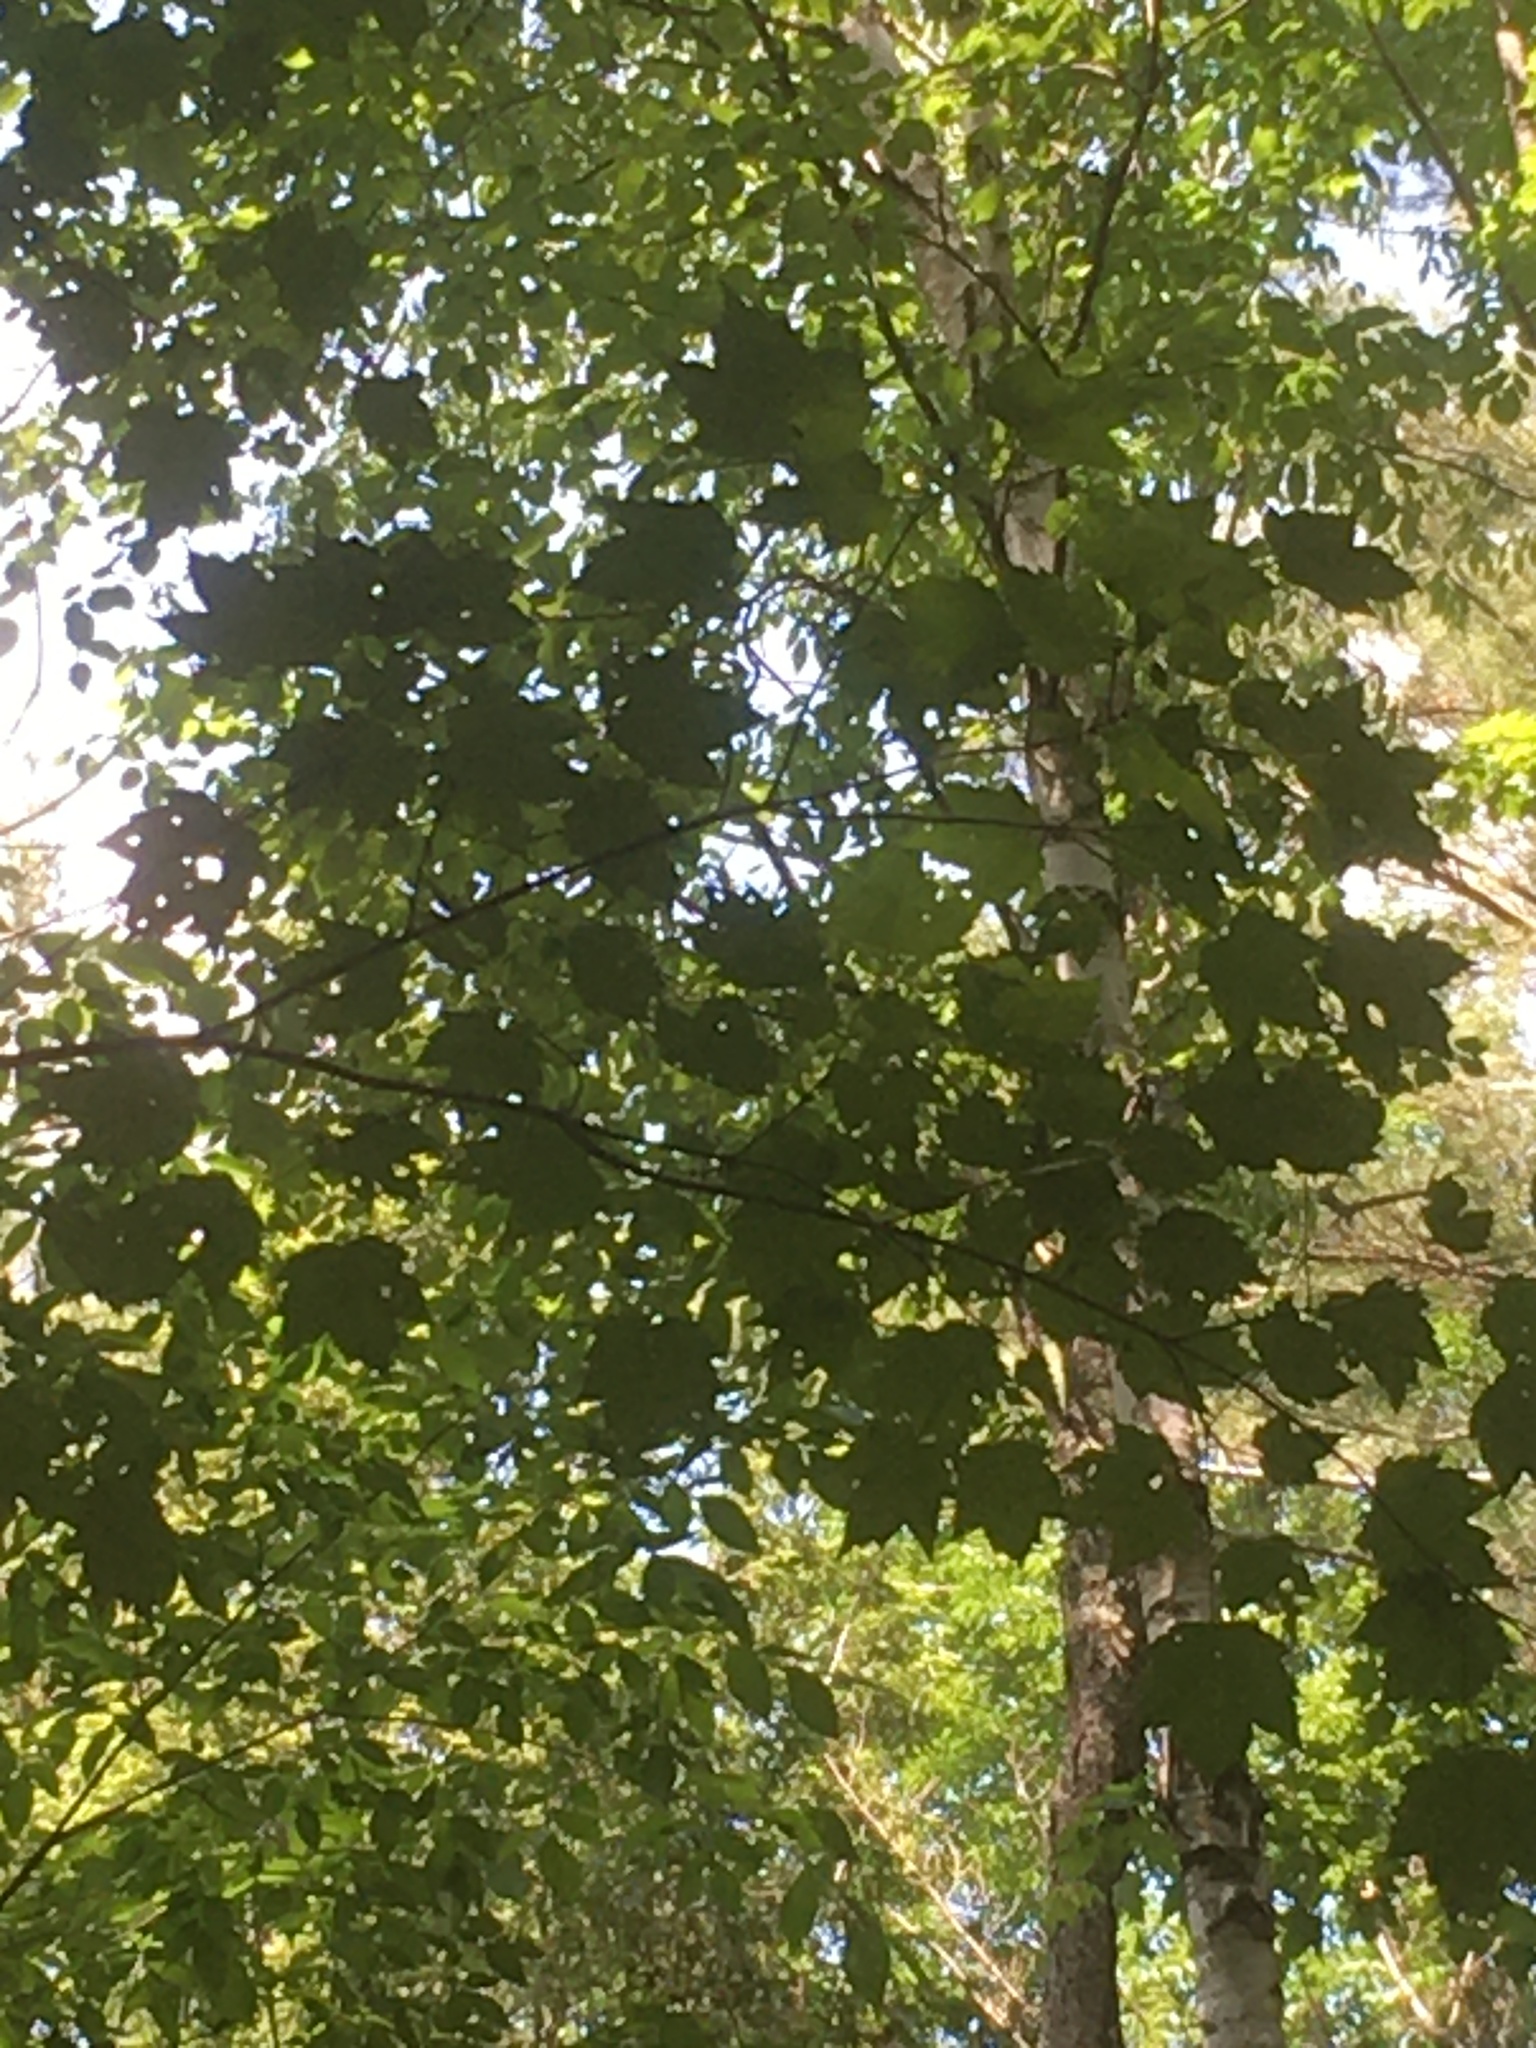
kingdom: Plantae
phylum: Tracheophyta
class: Magnoliopsida
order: Sapindales
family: Sapindaceae
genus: Acer
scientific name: Acer rubrum
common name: Red maple
